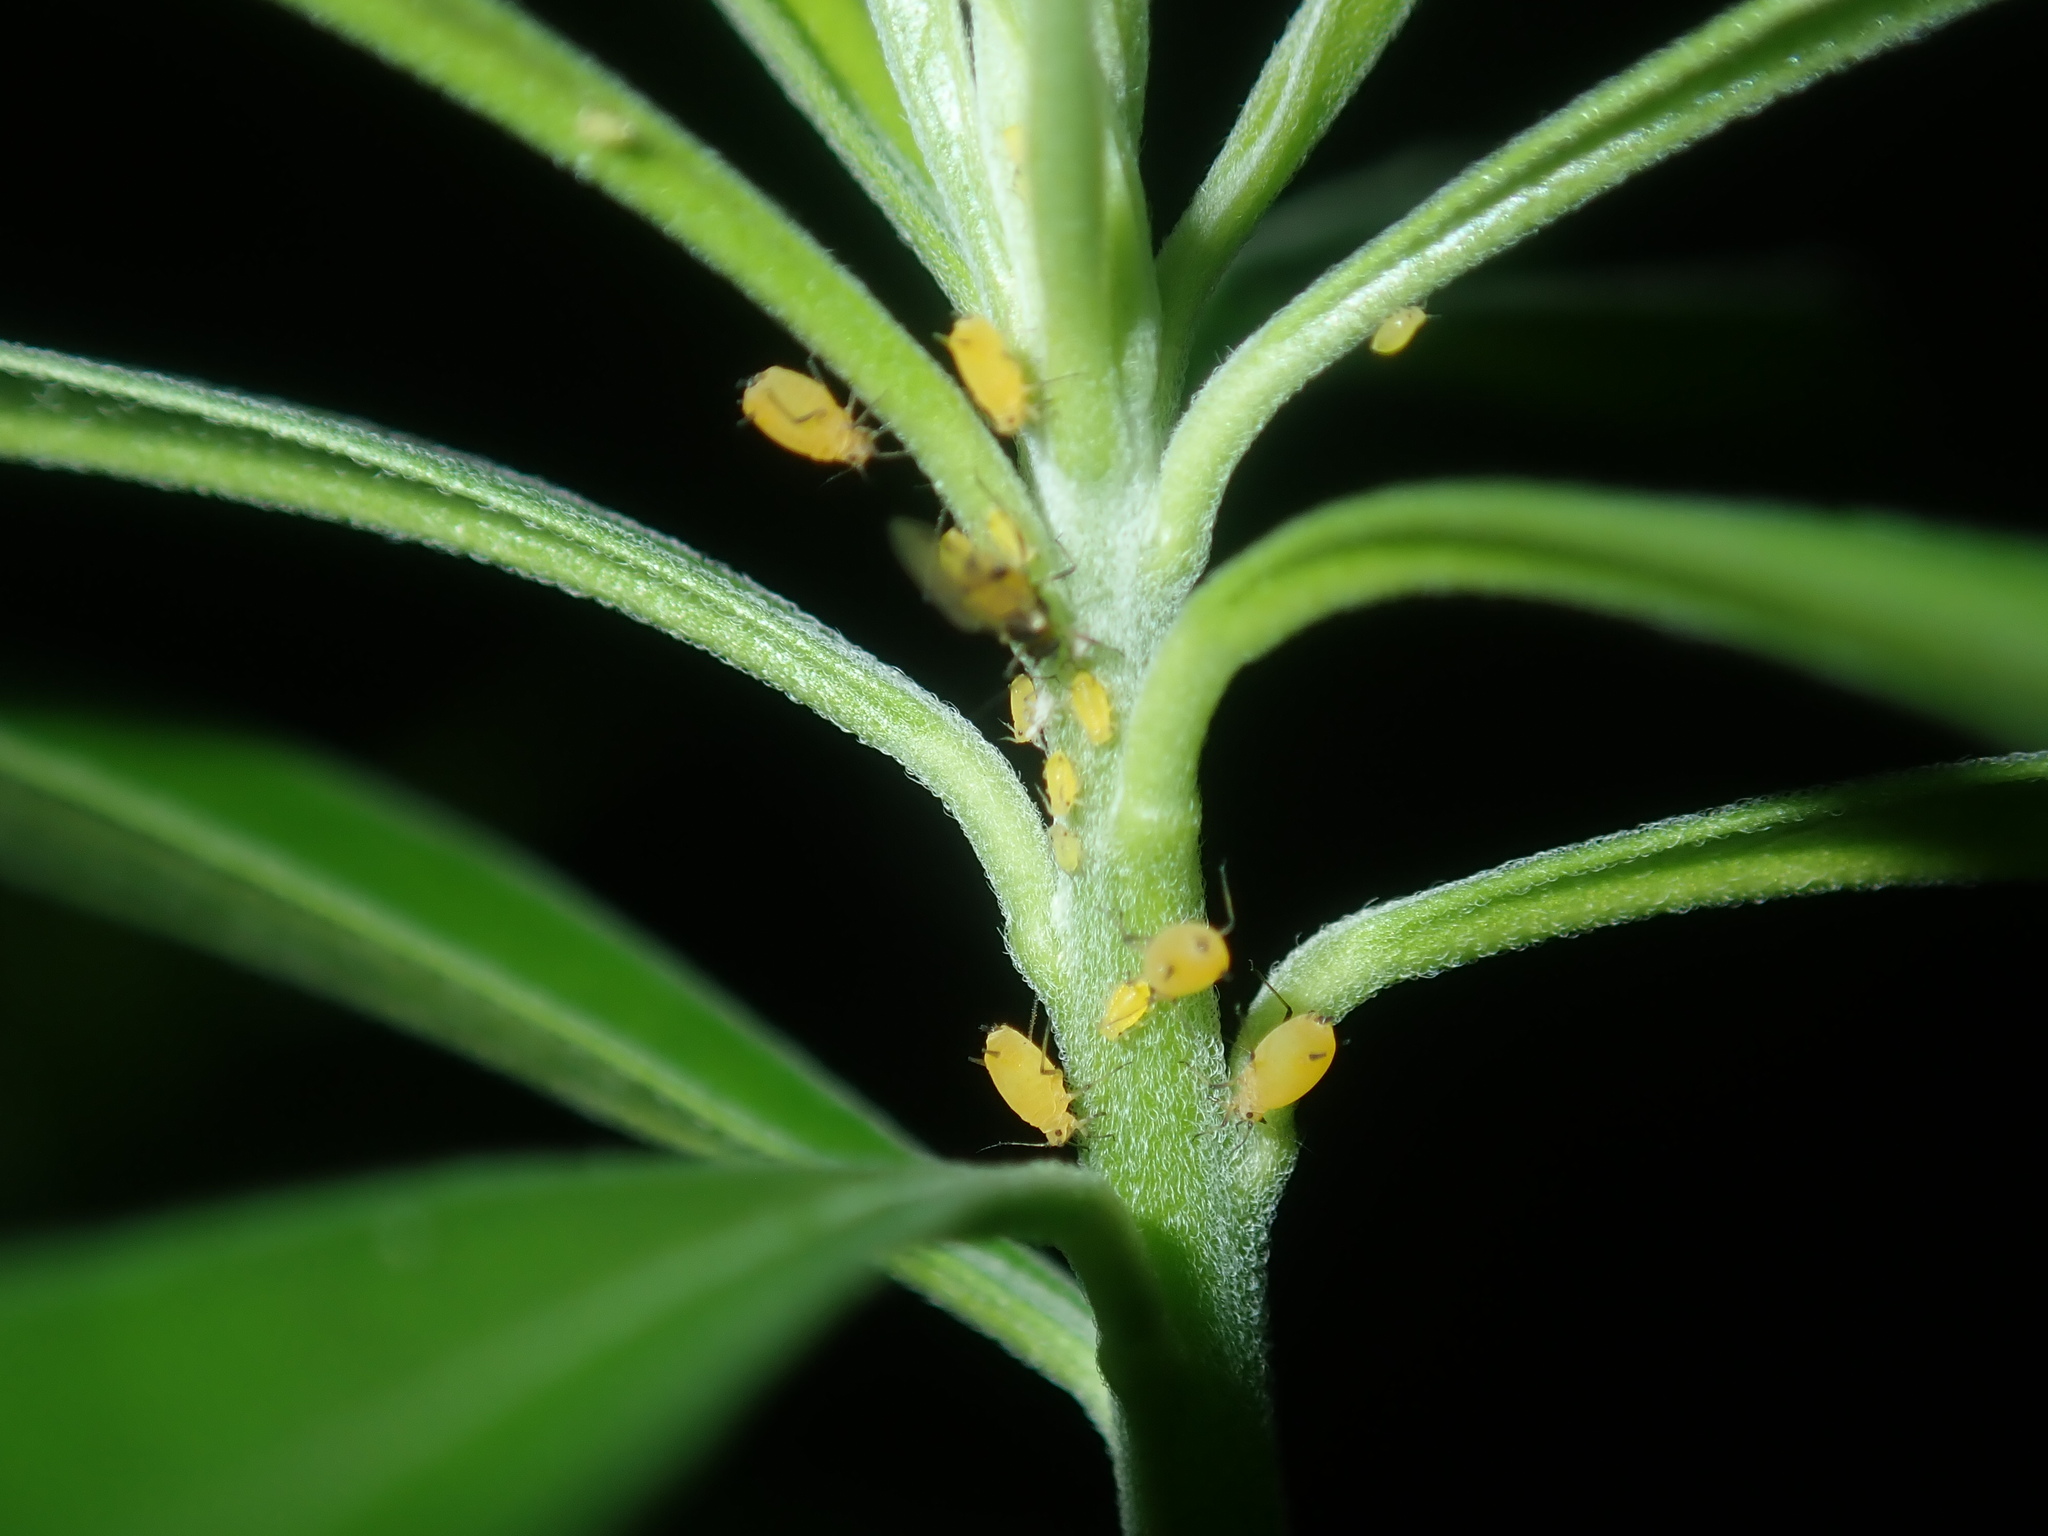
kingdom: Animalia
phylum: Arthropoda
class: Insecta
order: Hemiptera
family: Aphididae
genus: Aphis
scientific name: Aphis nerii
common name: Oleander aphid
